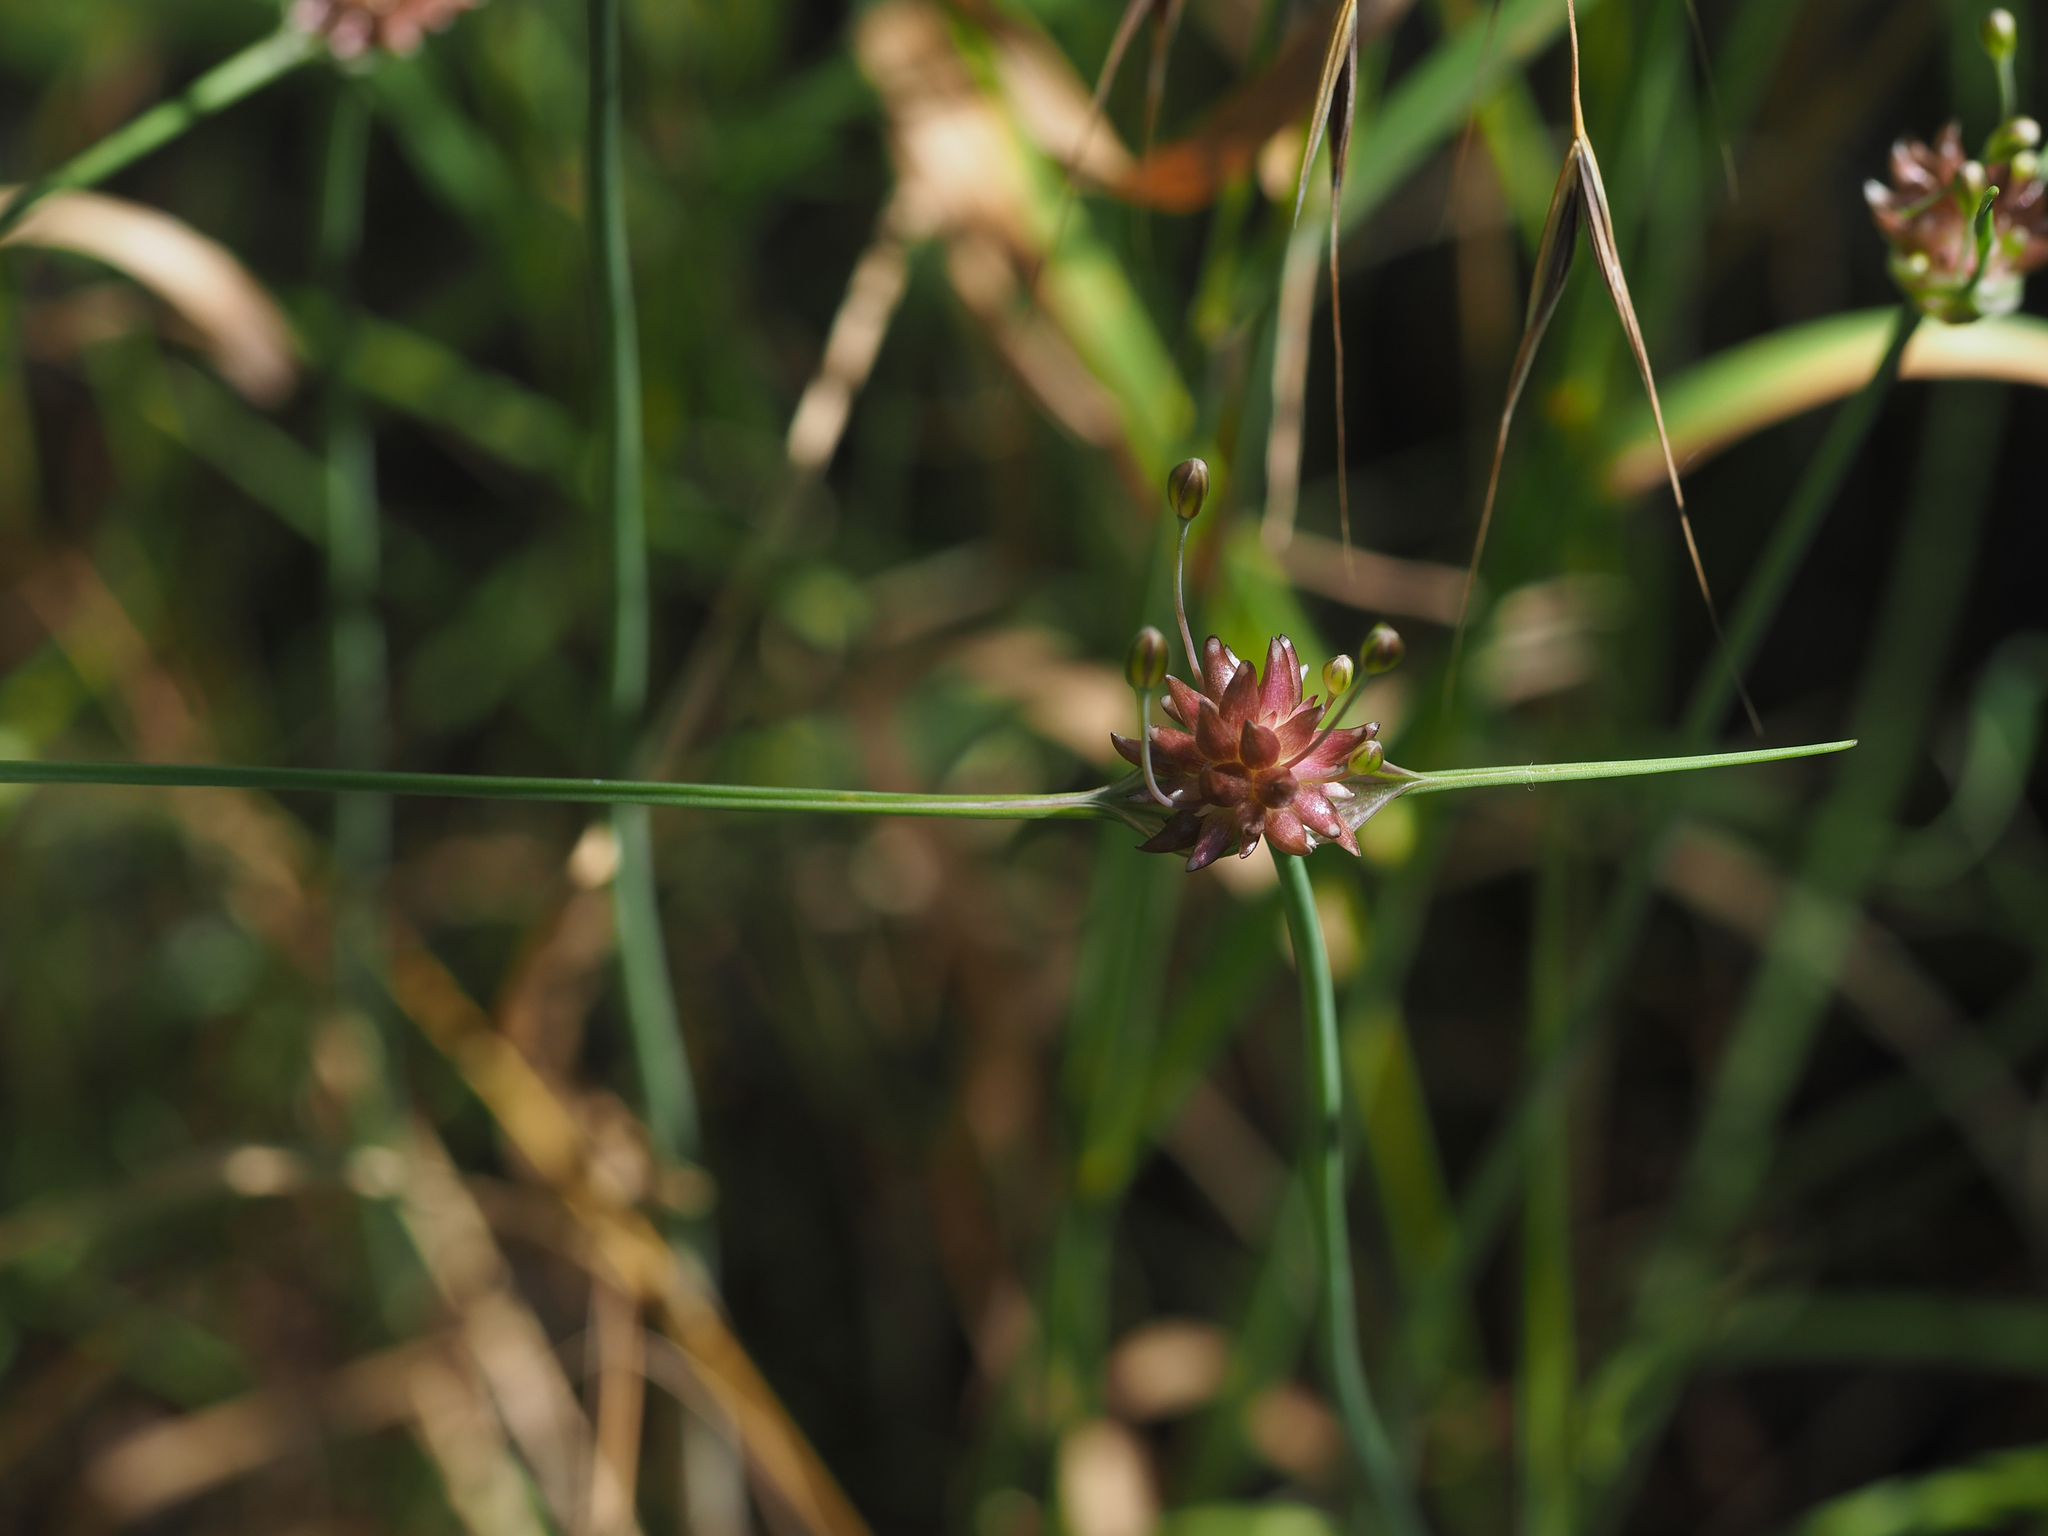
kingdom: Plantae
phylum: Tracheophyta
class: Liliopsida
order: Asparagales
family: Amaryllidaceae
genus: Allium
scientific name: Allium oleraceum
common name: Field garlic
